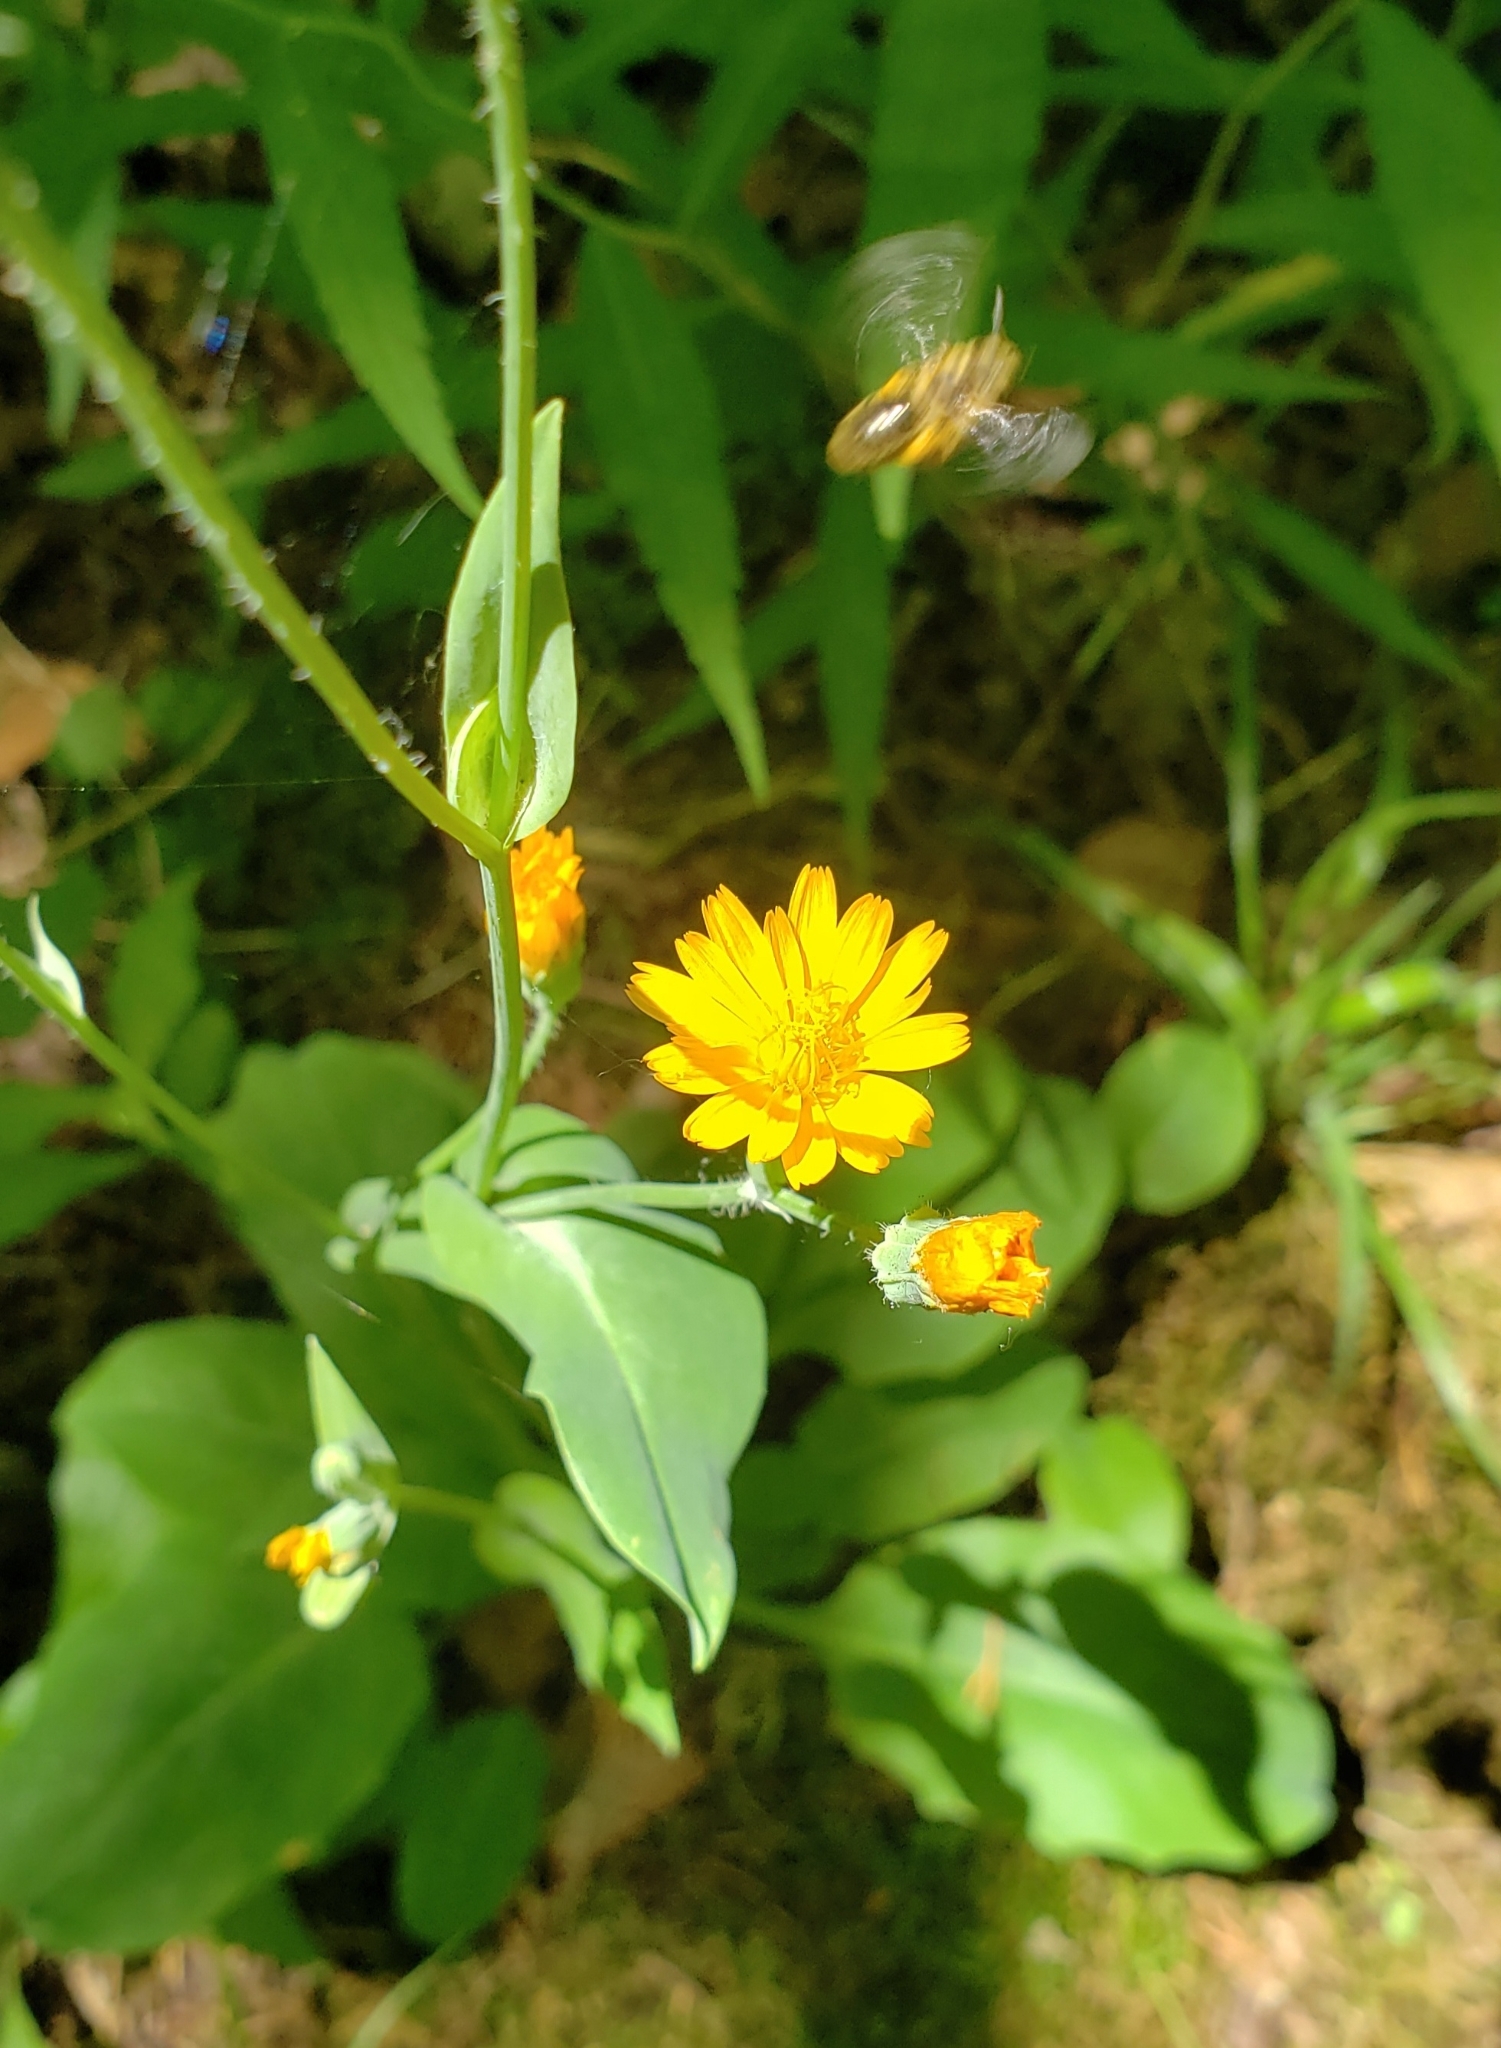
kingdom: Plantae
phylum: Tracheophyta
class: Magnoliopsida
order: Asterales
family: Asteraceae
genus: Krigia
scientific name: Krigia biflora
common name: Orange dwarf-dandelion
